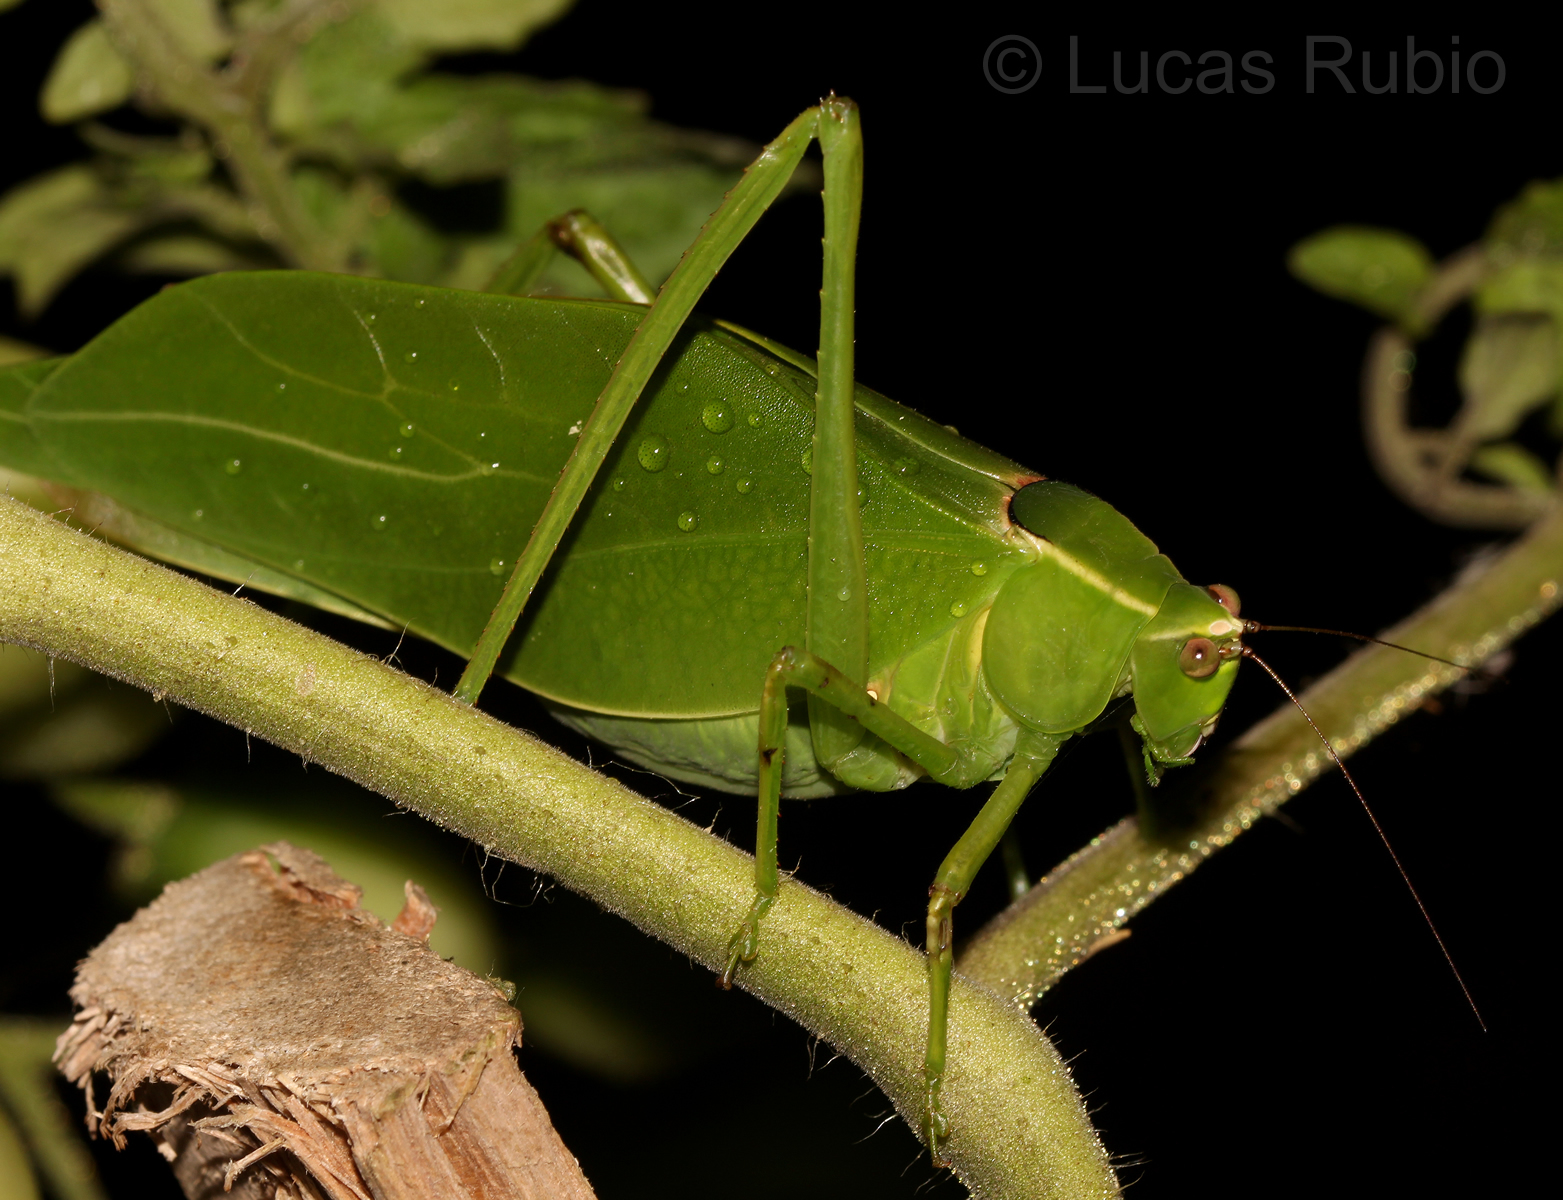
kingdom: Animalia
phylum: Arthropoda
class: Insecta
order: Orthoptera
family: Tettigoniidae
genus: Stilpnochlora
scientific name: Stilpnochlora nanna
